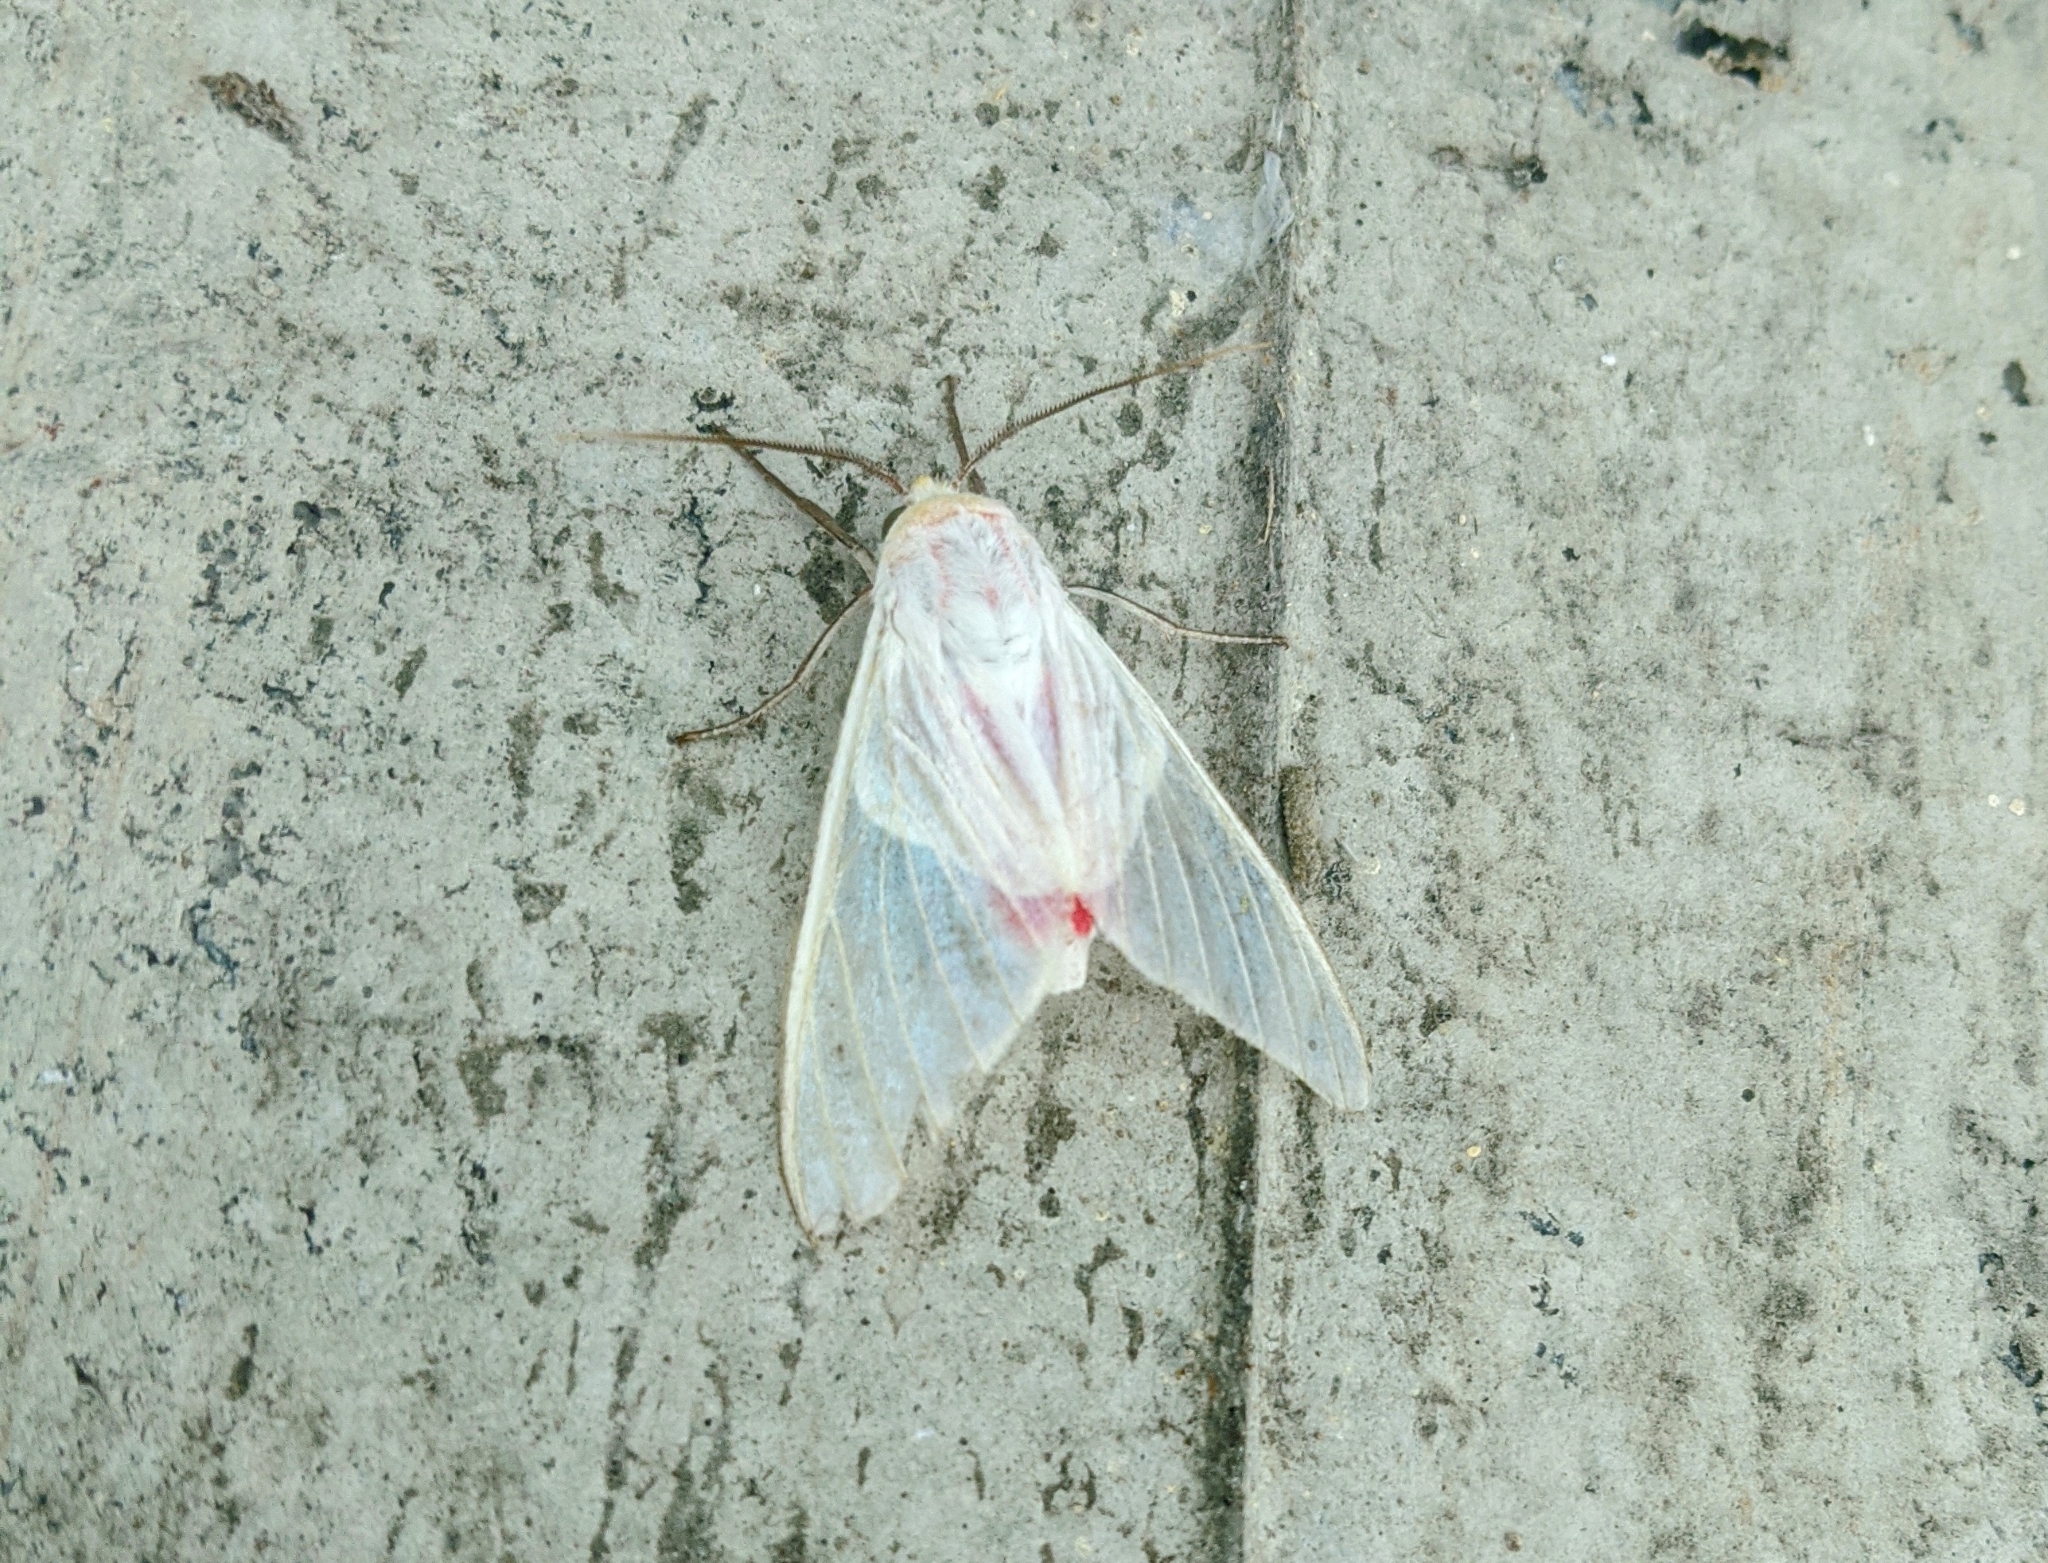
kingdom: Animalia
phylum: Arthropoda
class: Insecta
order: Lepidoptera
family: Erebidae
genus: Eupseudosoma
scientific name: Eupseudosoma involuta
